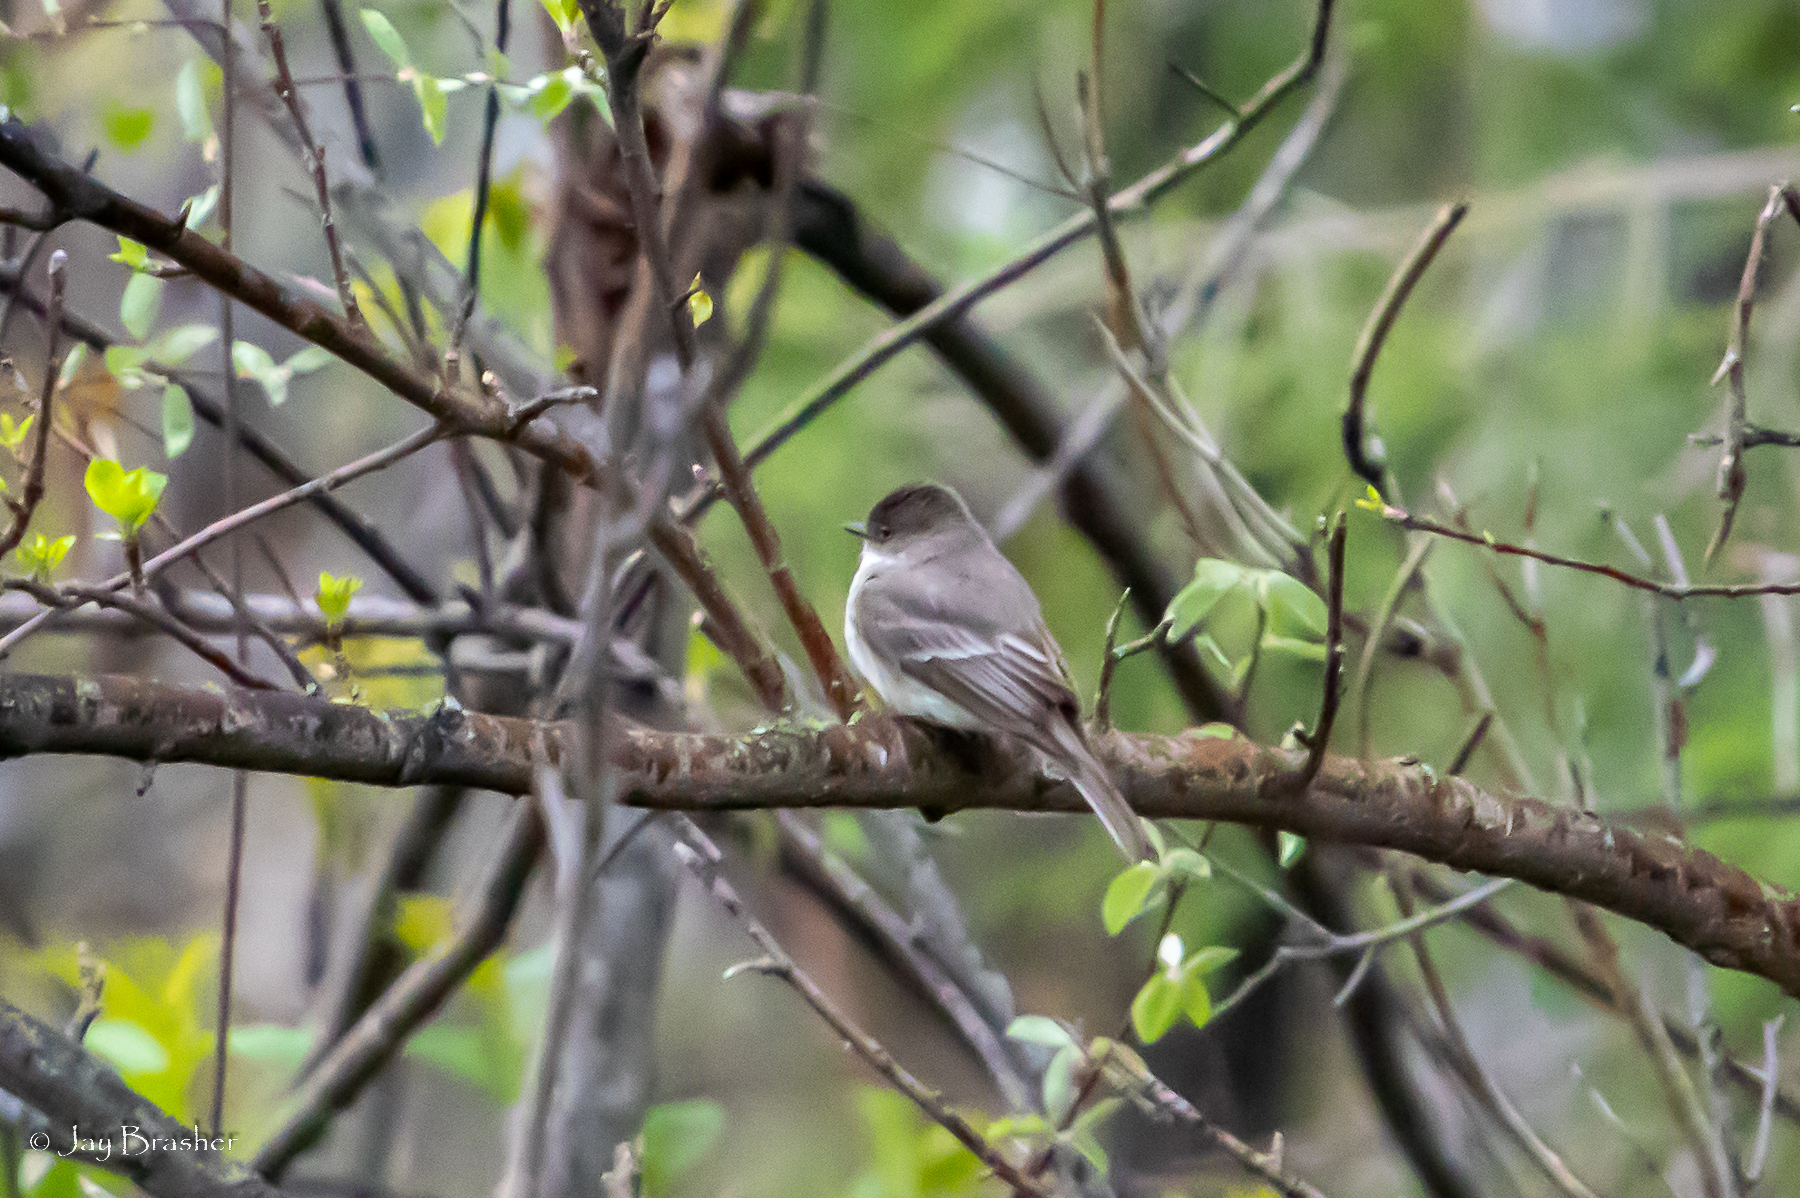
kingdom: Animalia
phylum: Chordata
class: Aves
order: Passeriformes
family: Tyrannidae
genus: Sayornis
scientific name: Sayornis phoebe
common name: Eastern phoebe
